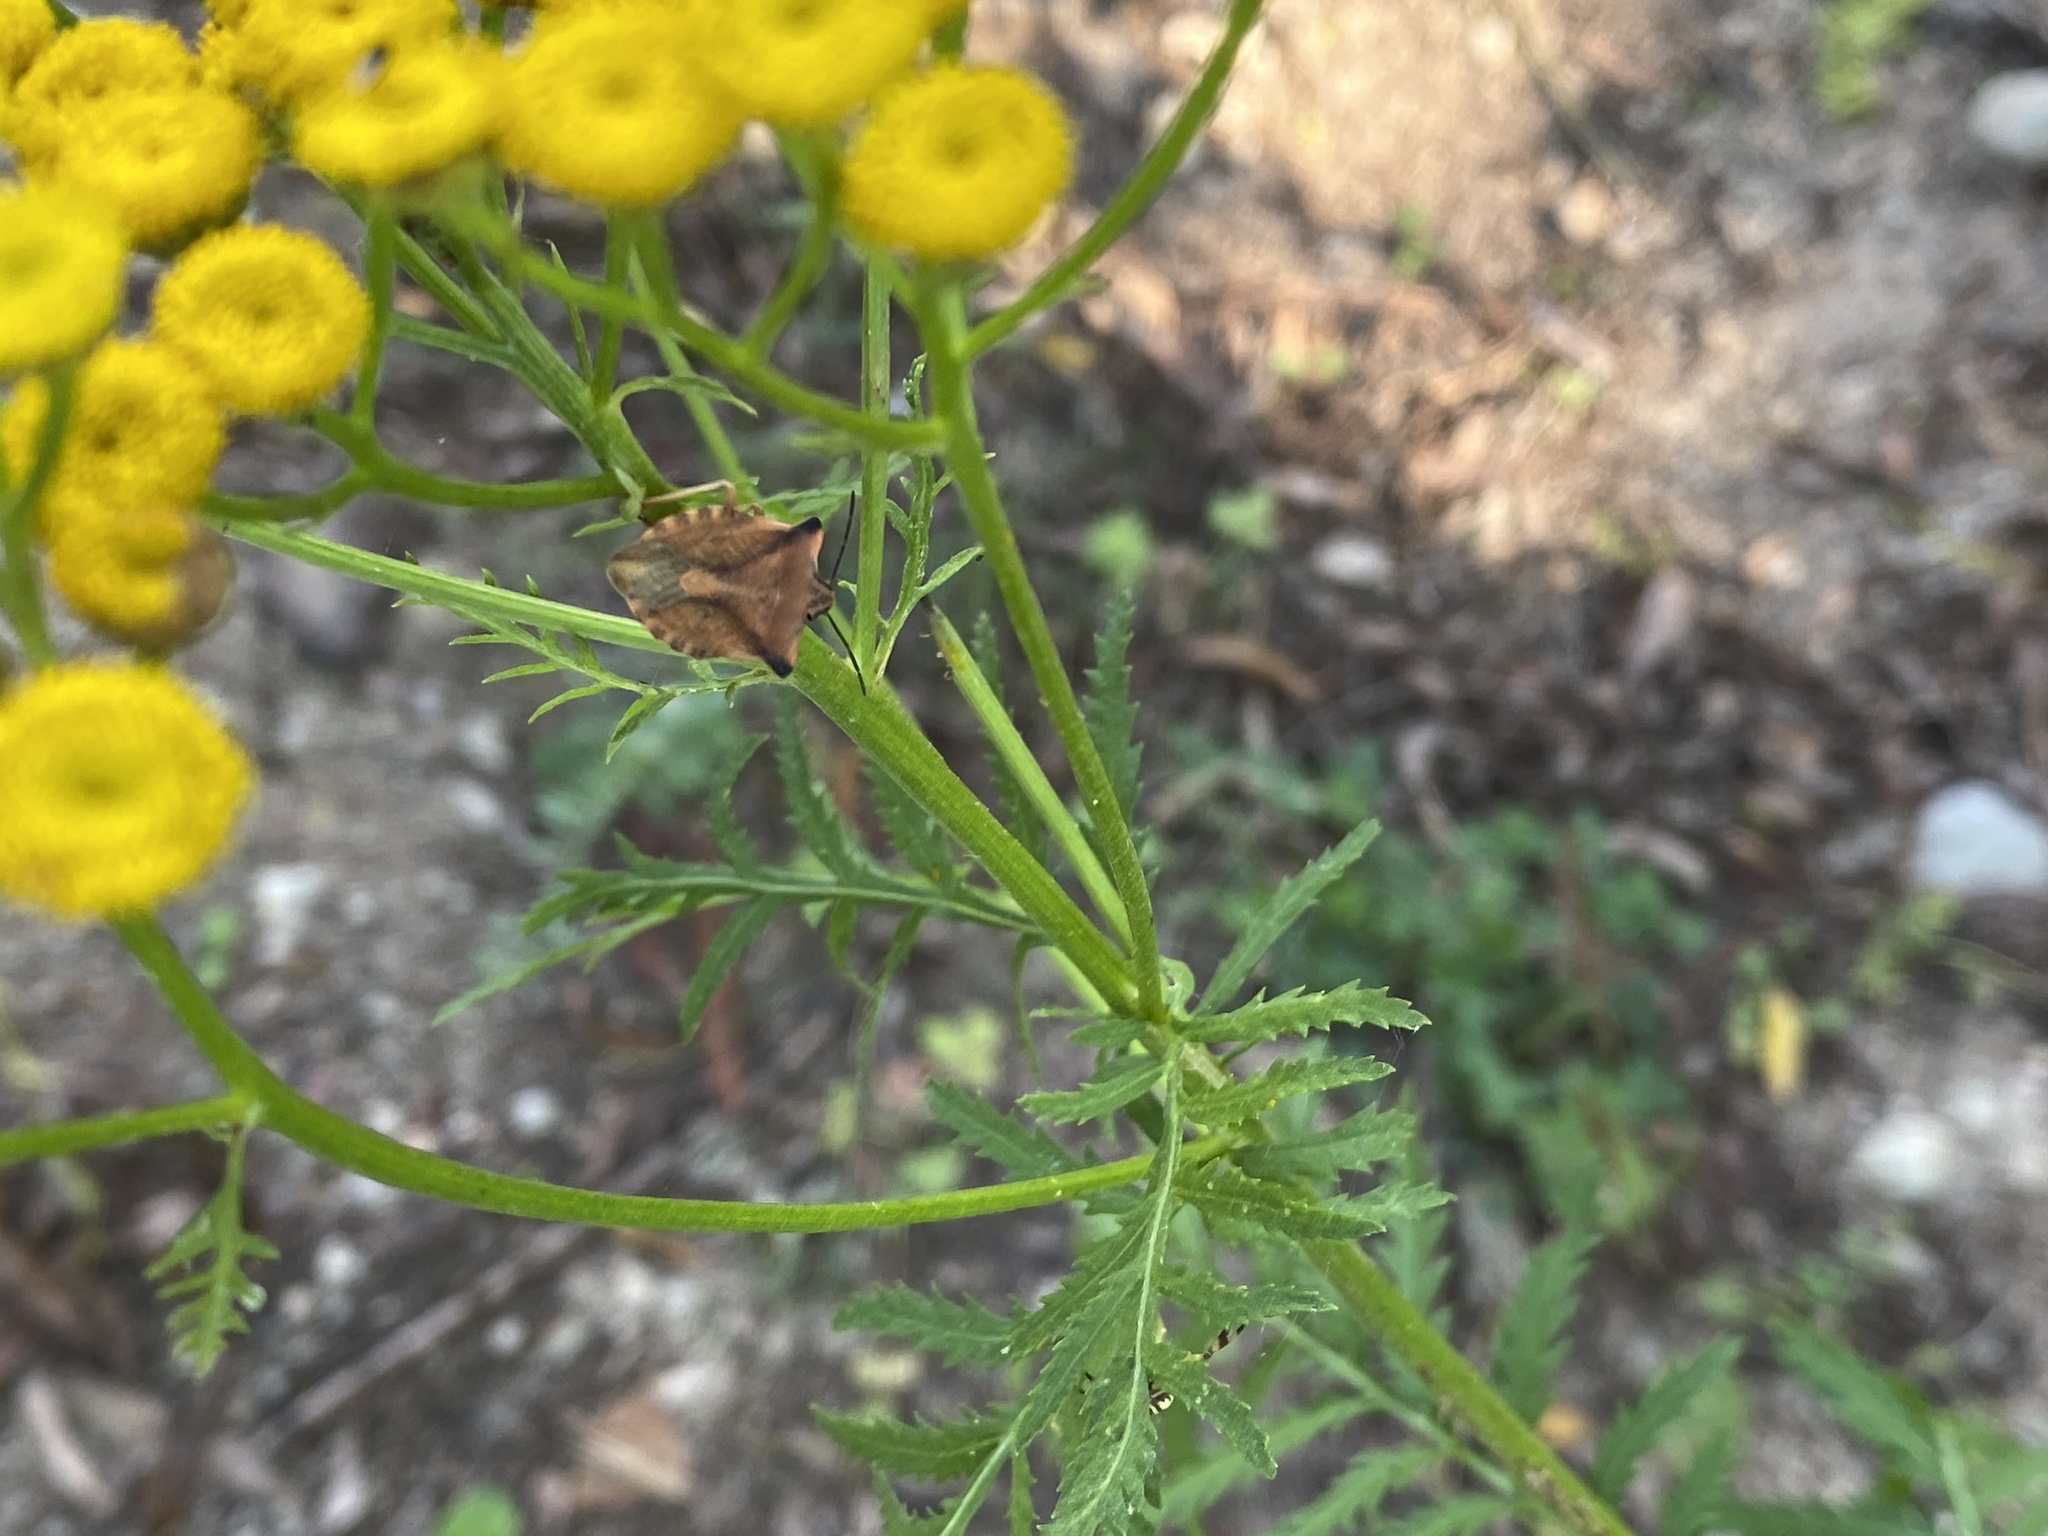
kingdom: Animalia
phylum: Arthropoda
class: Insecta
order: Hemiptera
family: Pentatomidae
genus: Carpocoris
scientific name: Carpocoris fuscispinus
